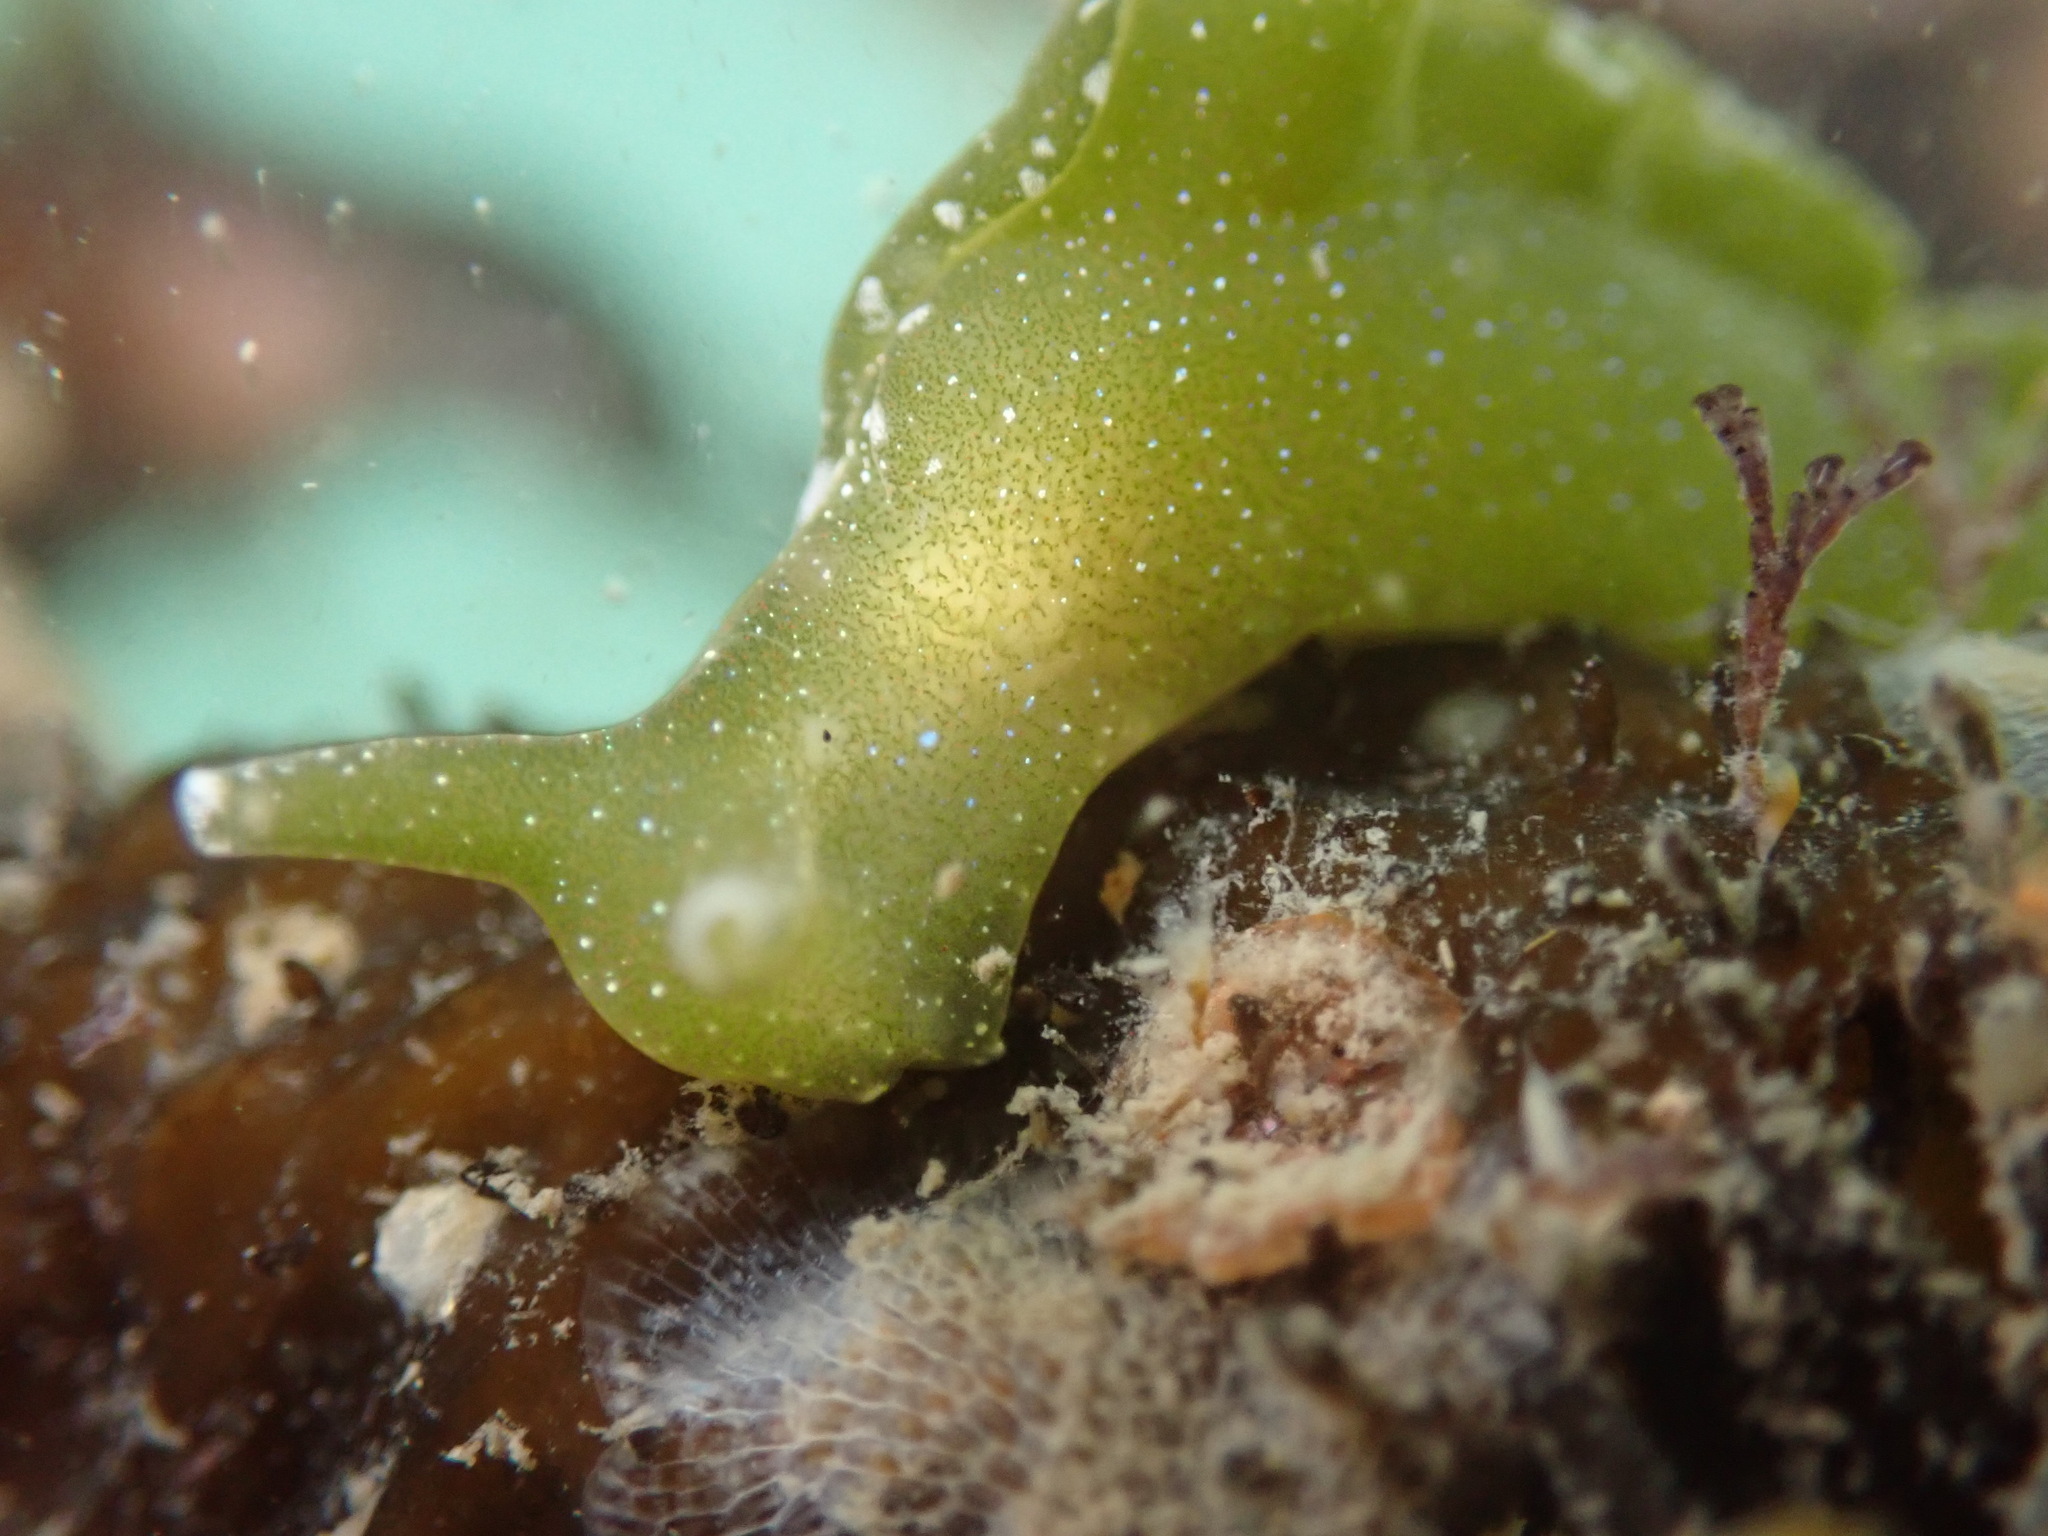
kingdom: Animalia
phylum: Mollusca
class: Gastropoda
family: Plakobranchidae
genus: Elysia
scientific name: Elysia hedgpethi
